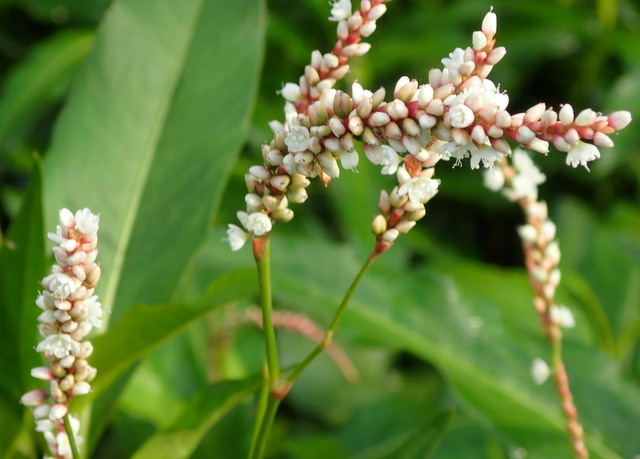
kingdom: Plantae
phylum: Tracheophyta
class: Magnoliopsida
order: Caryophyllales
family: Polygonaceae
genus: Persicaria
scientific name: Persicaria hydropiperoides
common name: Swamp smartweed
